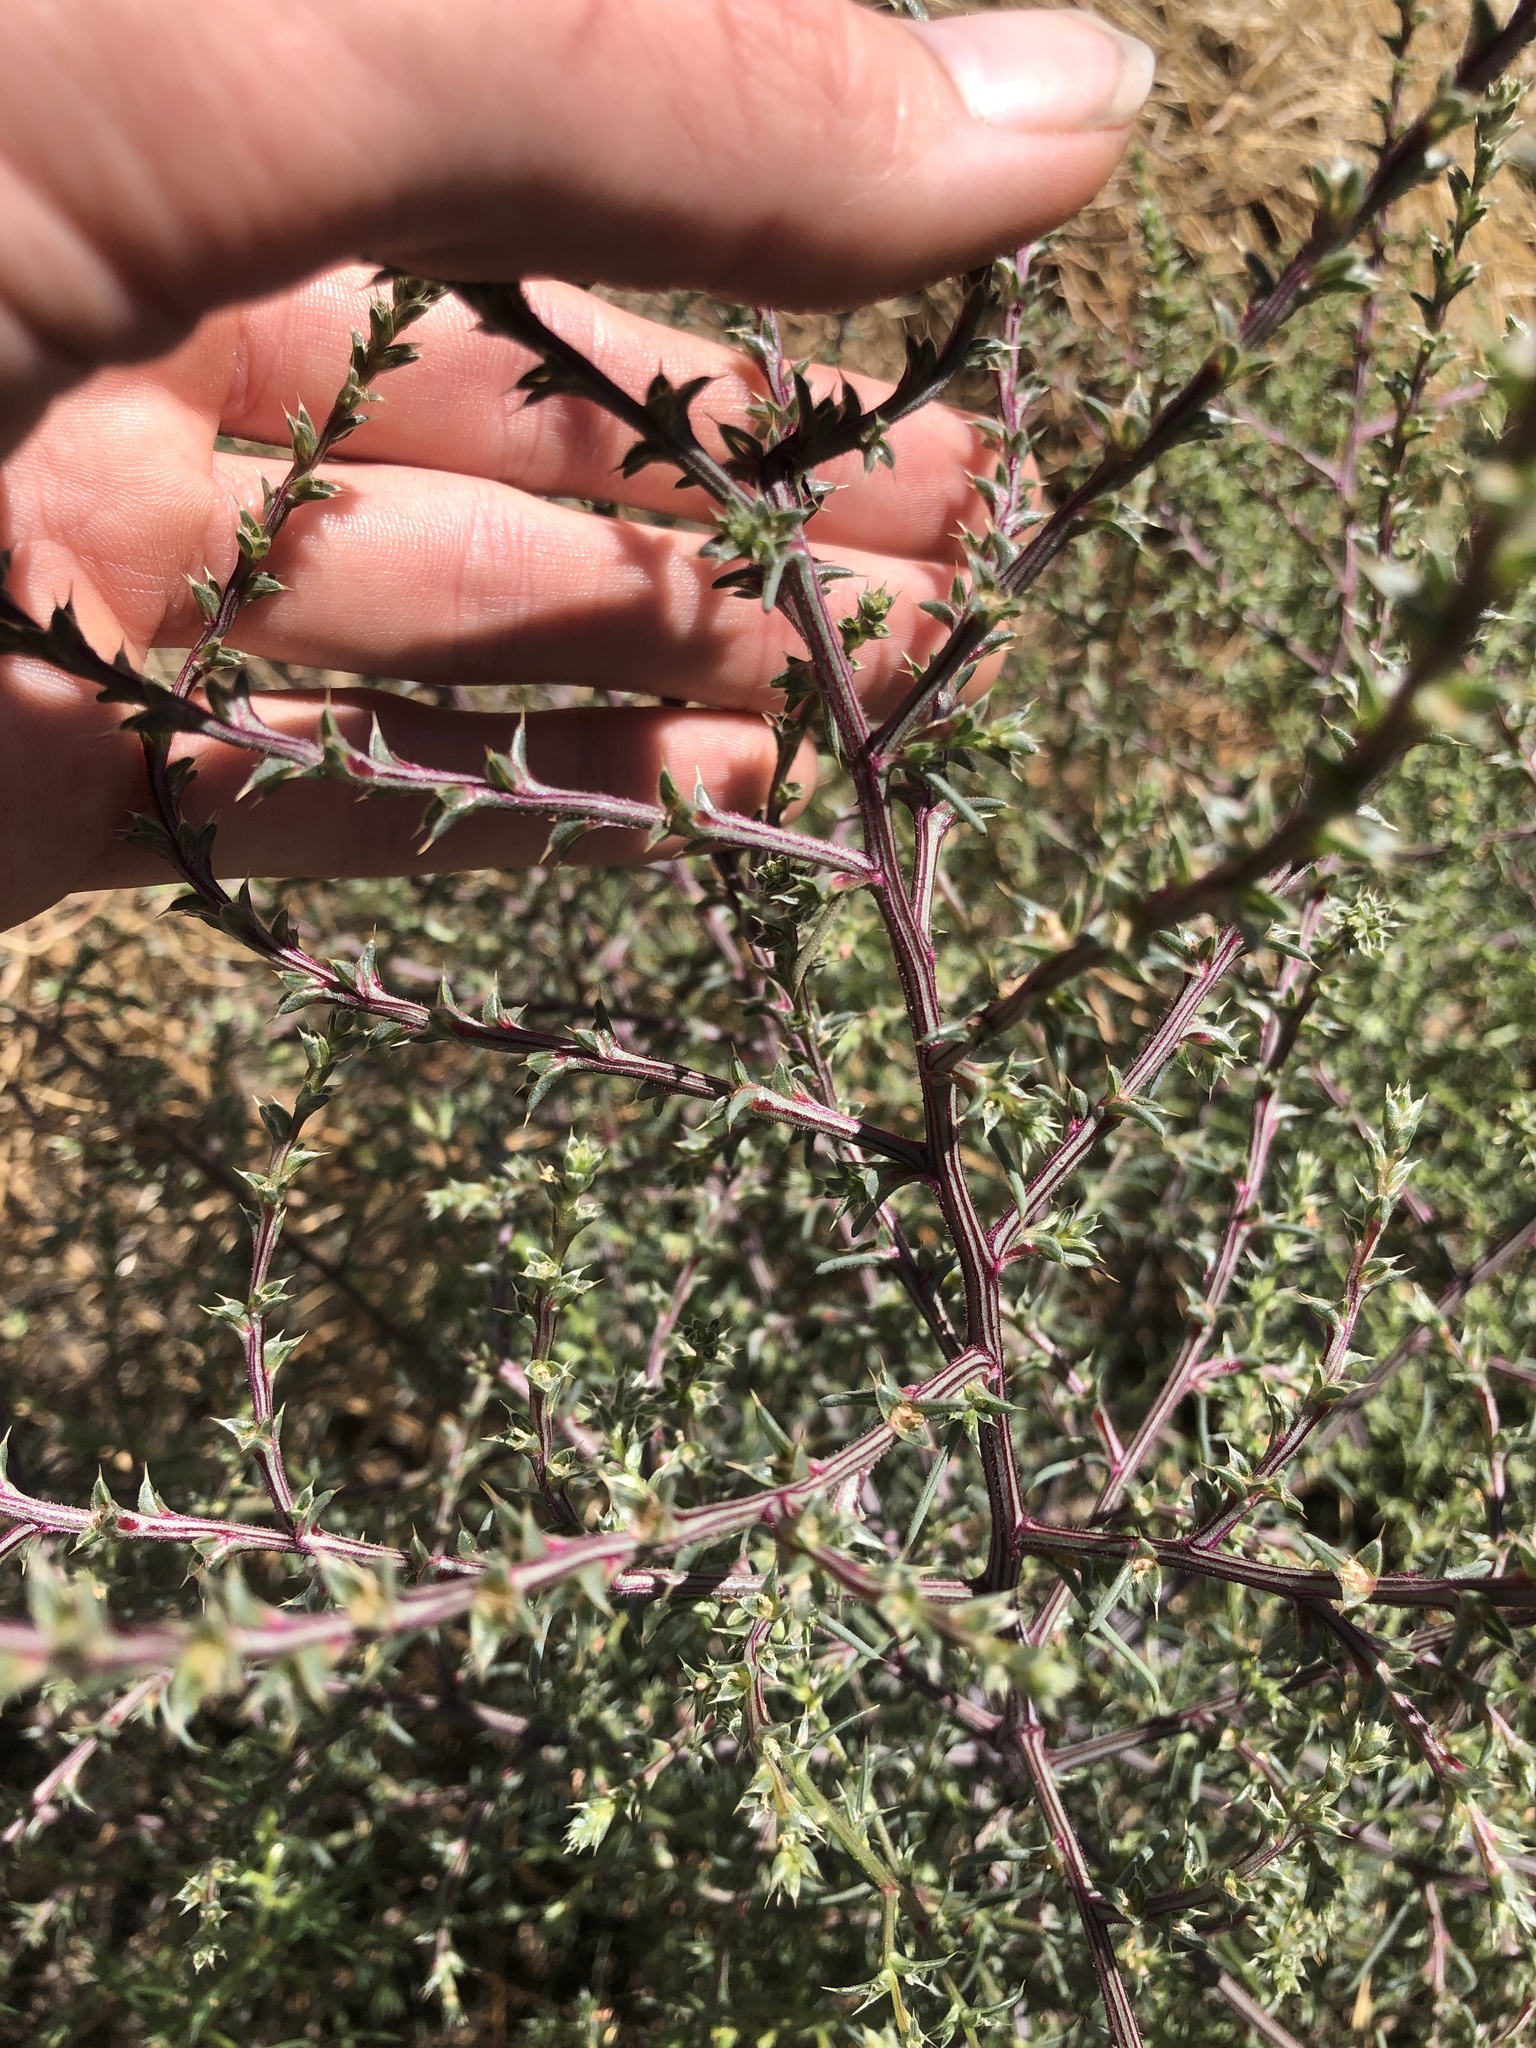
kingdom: Plantae
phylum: Tracheophyta
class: Magnoliopsida
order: Caryophyllales
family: Amaranthaceae
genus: Salsola
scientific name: Salsola tragus
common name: Prickly russian thistle
